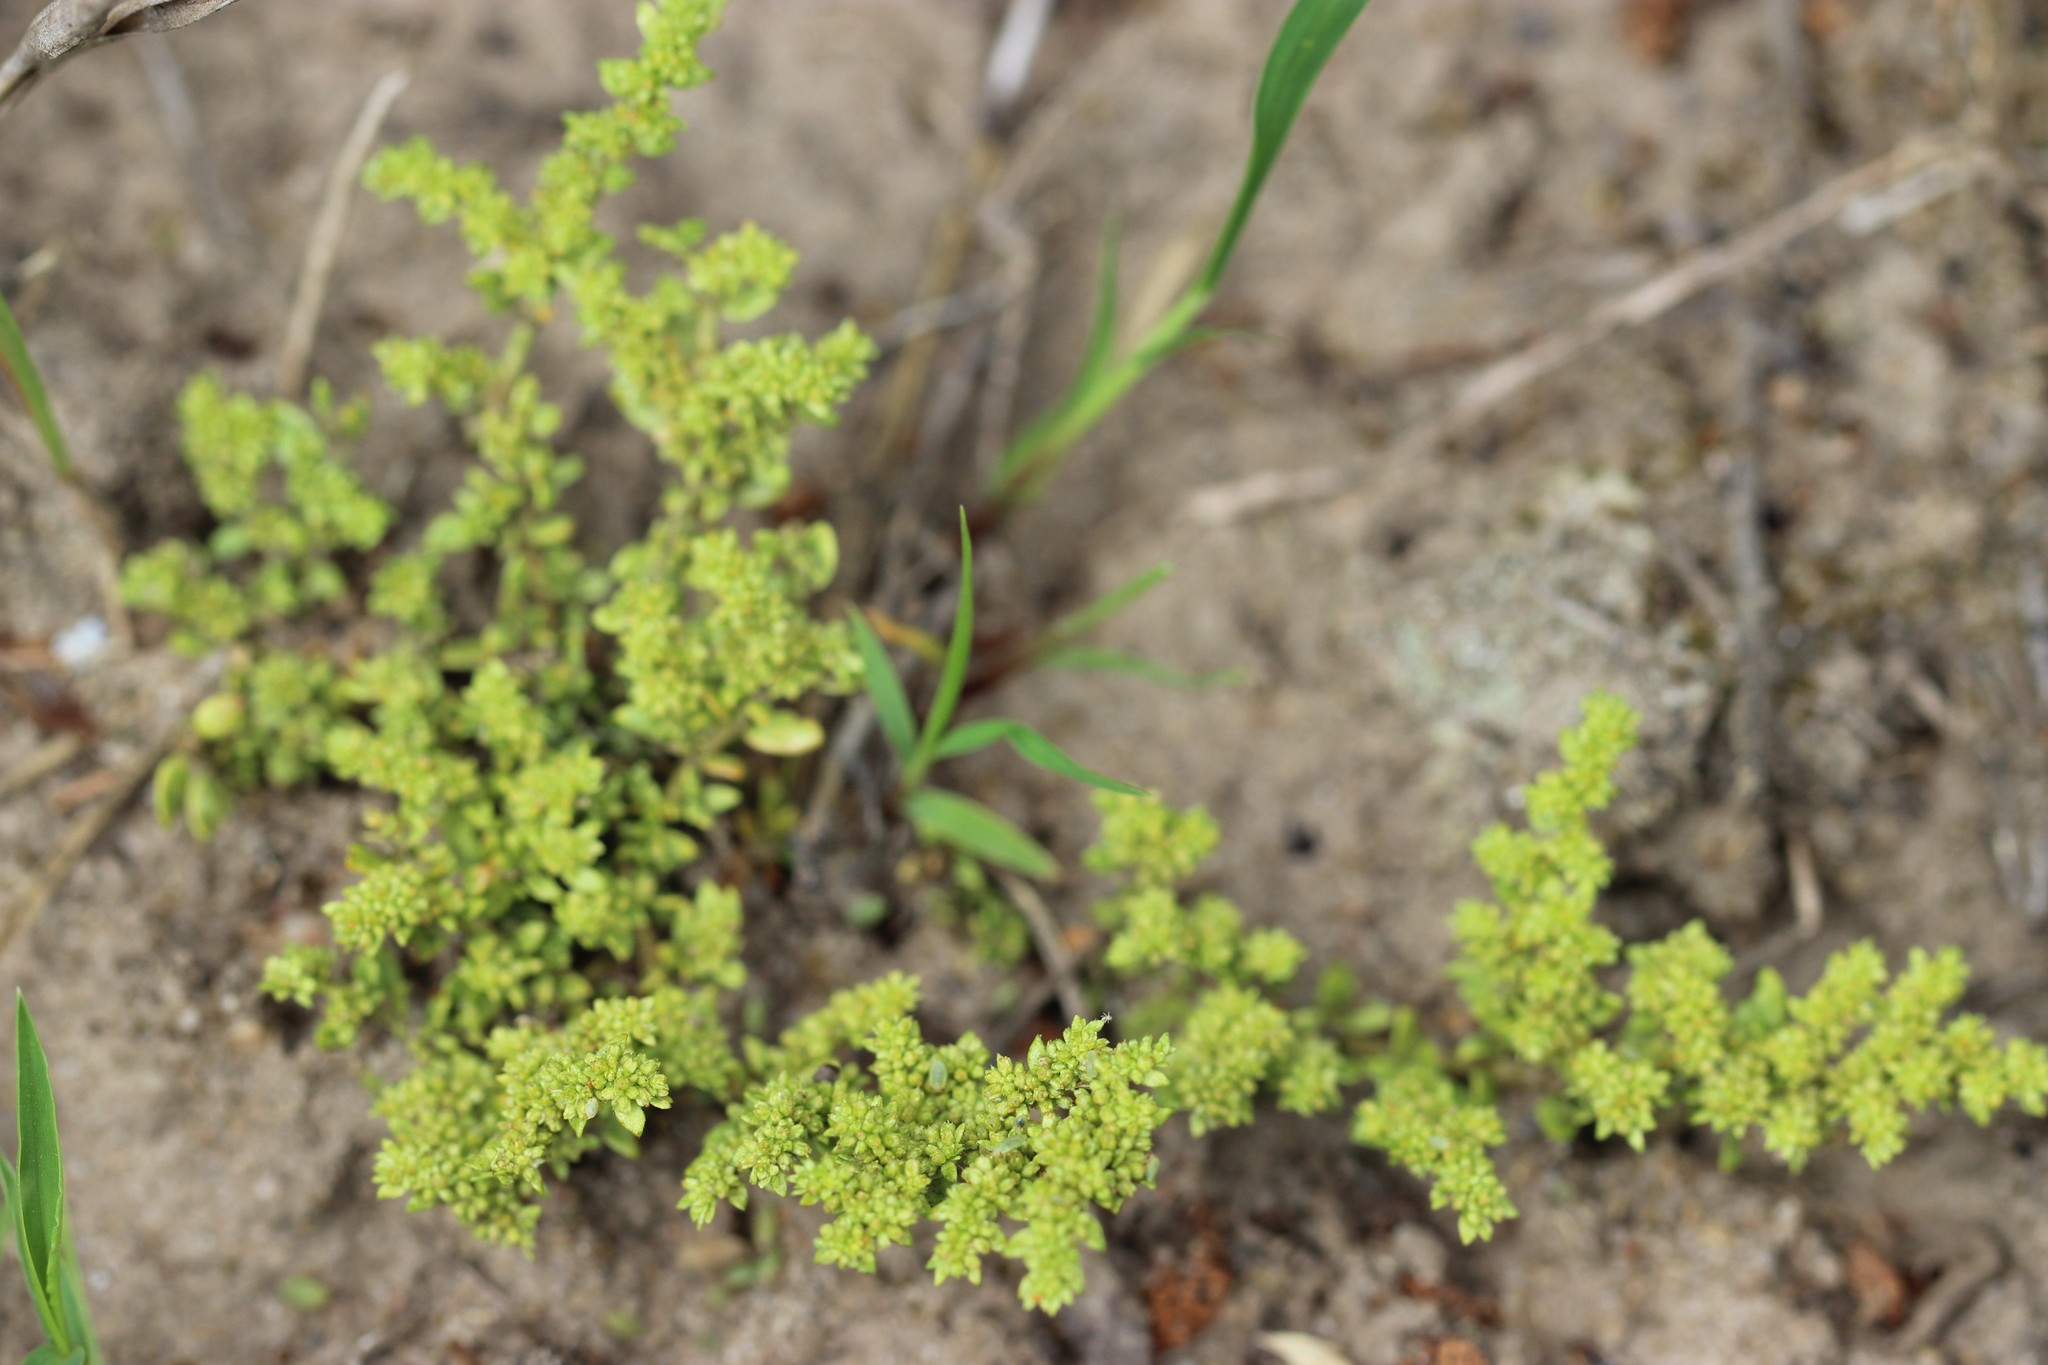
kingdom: Plantae
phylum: Tracheophyta
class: Magnoliopsida
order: Caryophyllales
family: Caryophyllaceae
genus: Herniaria
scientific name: Herniaria glabra
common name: Smooth rupturewort
